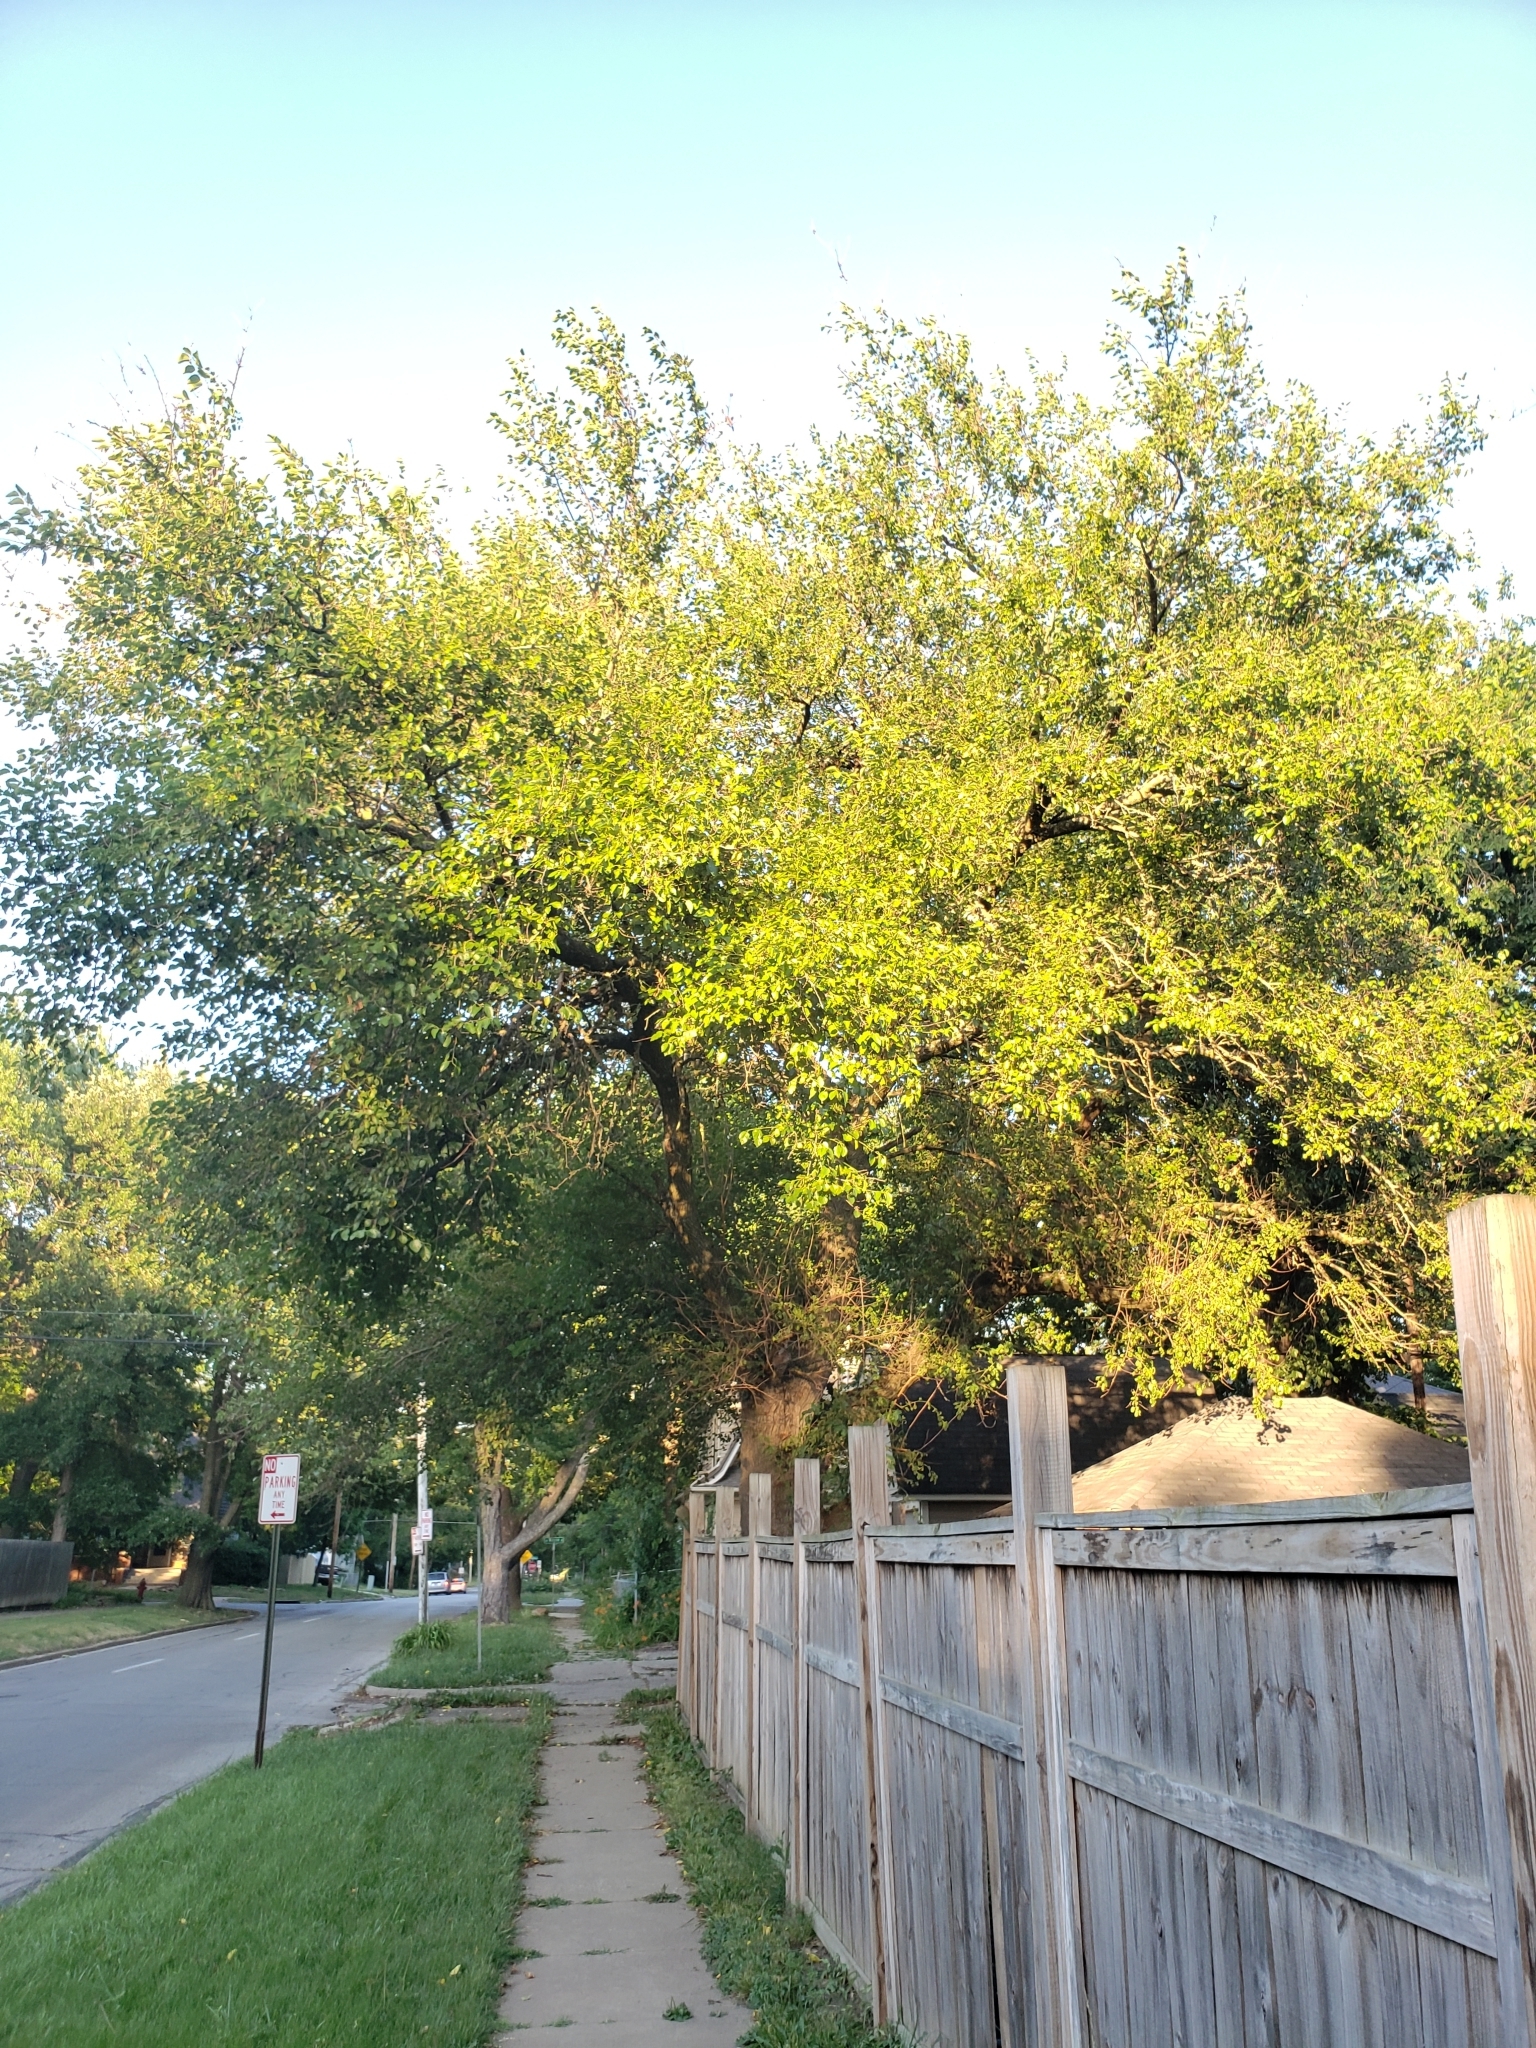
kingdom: Plantae
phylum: Tracheophyta
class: Magnoliopsida
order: Rosales
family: Moraceae
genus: Morus
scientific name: Morus alba
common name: White mulberry
